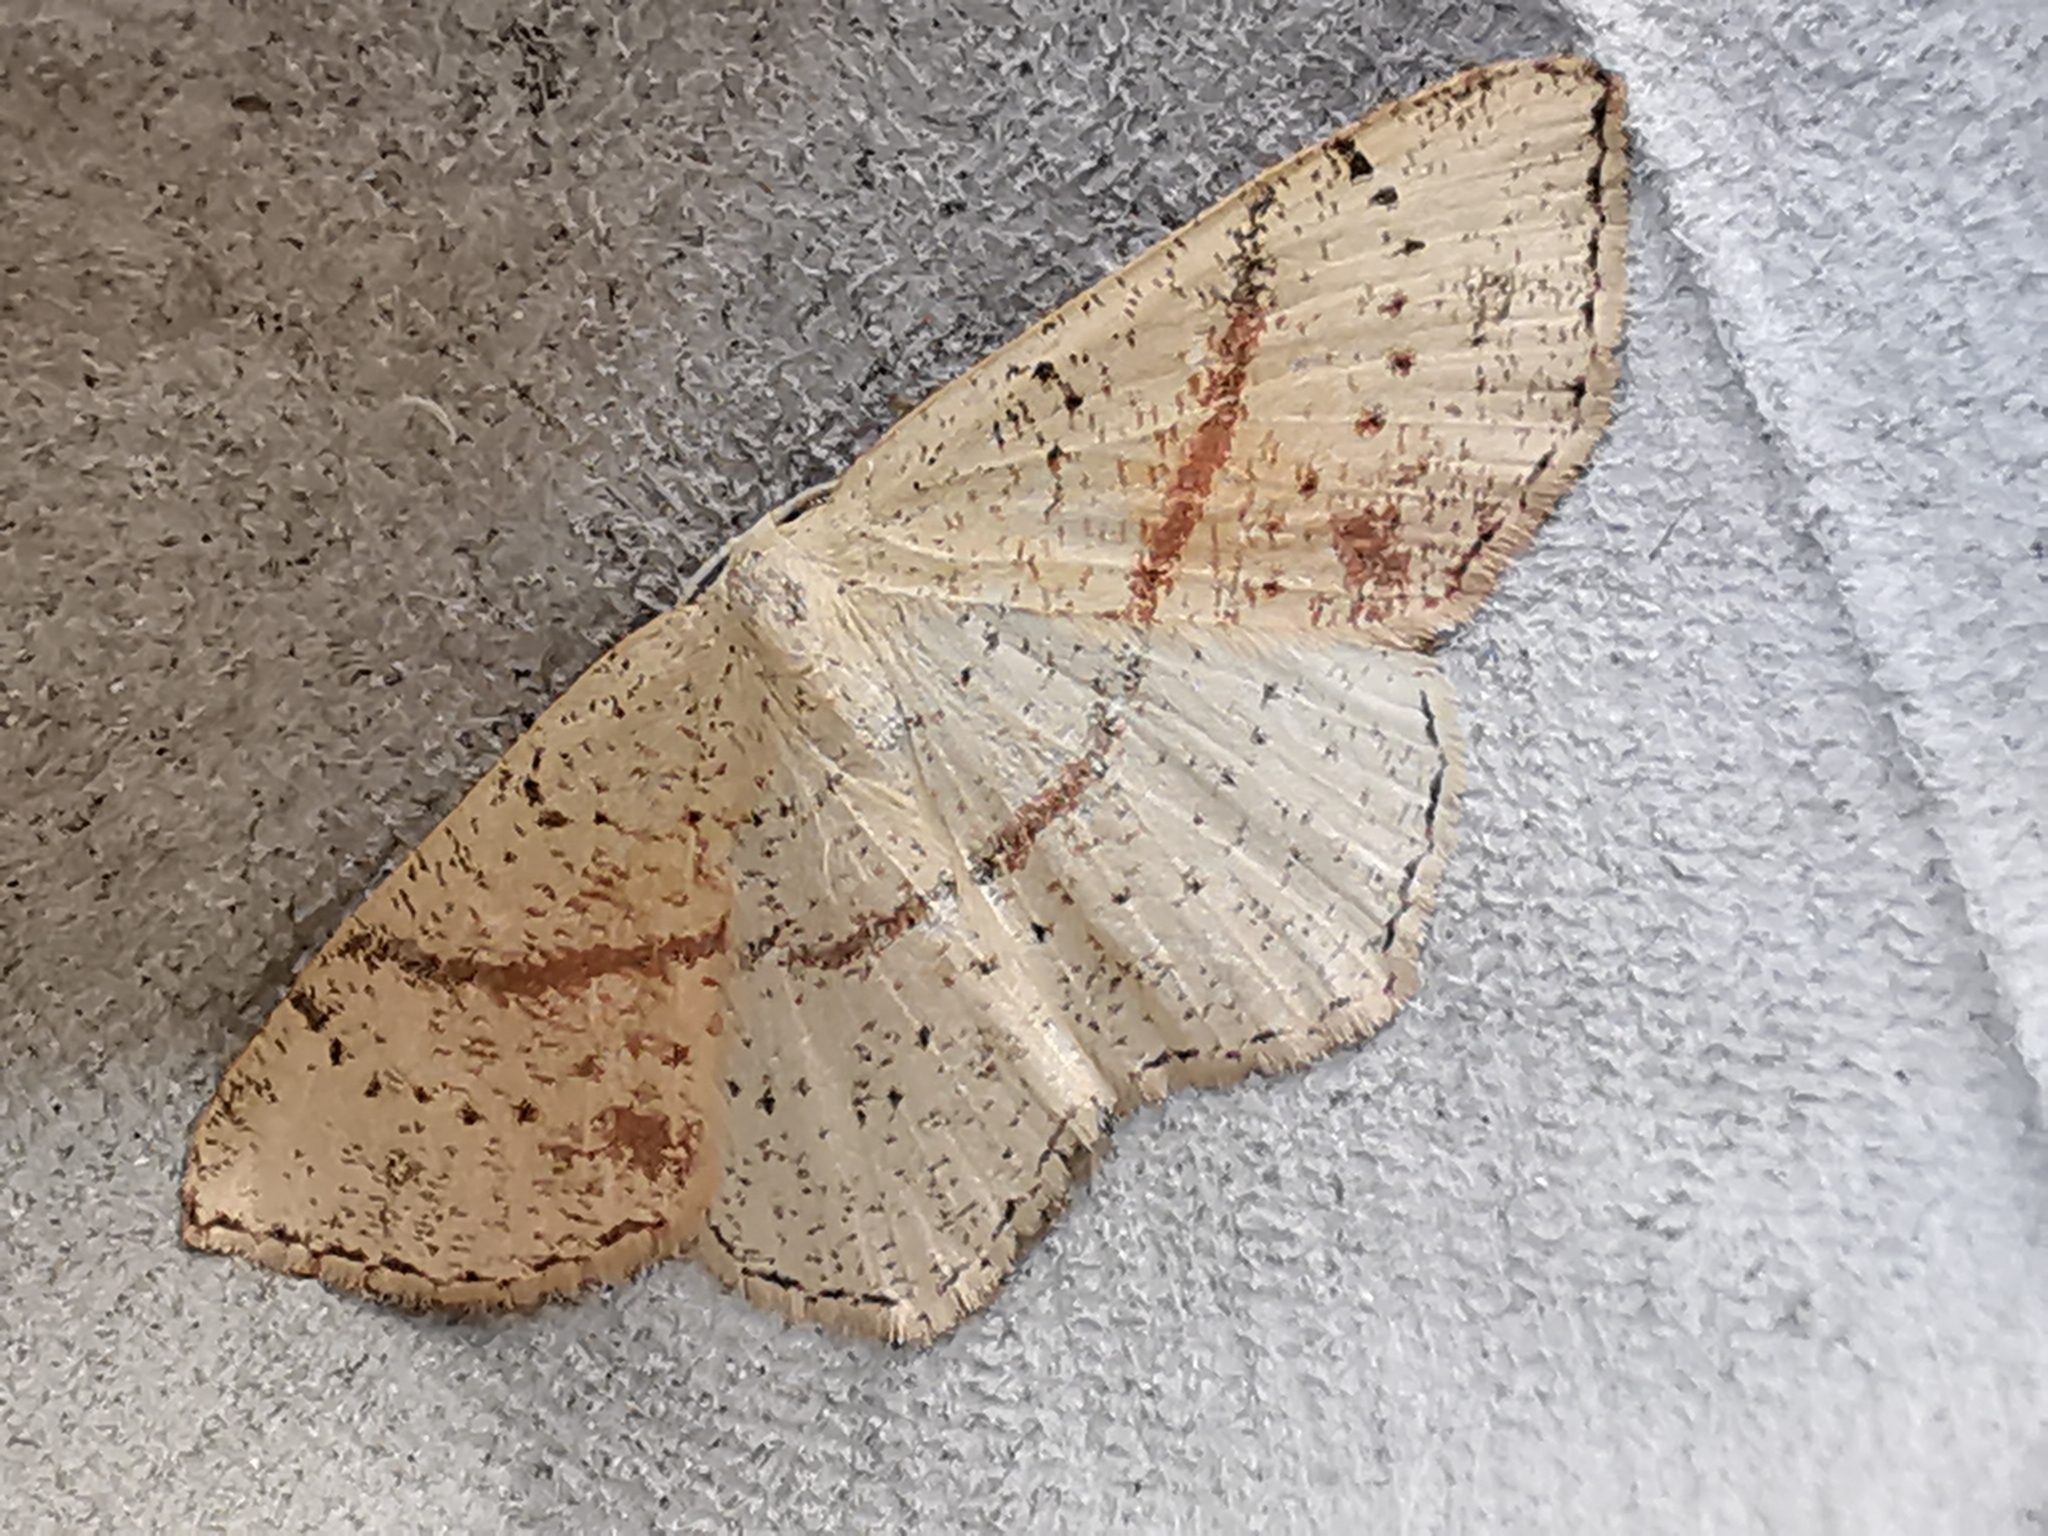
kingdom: Animalia
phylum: Arthropoda
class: Insecta
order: Lepidoptera
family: Geometridae
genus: Cyclophora
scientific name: Cyclophora punctaria
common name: Maiden's blush
